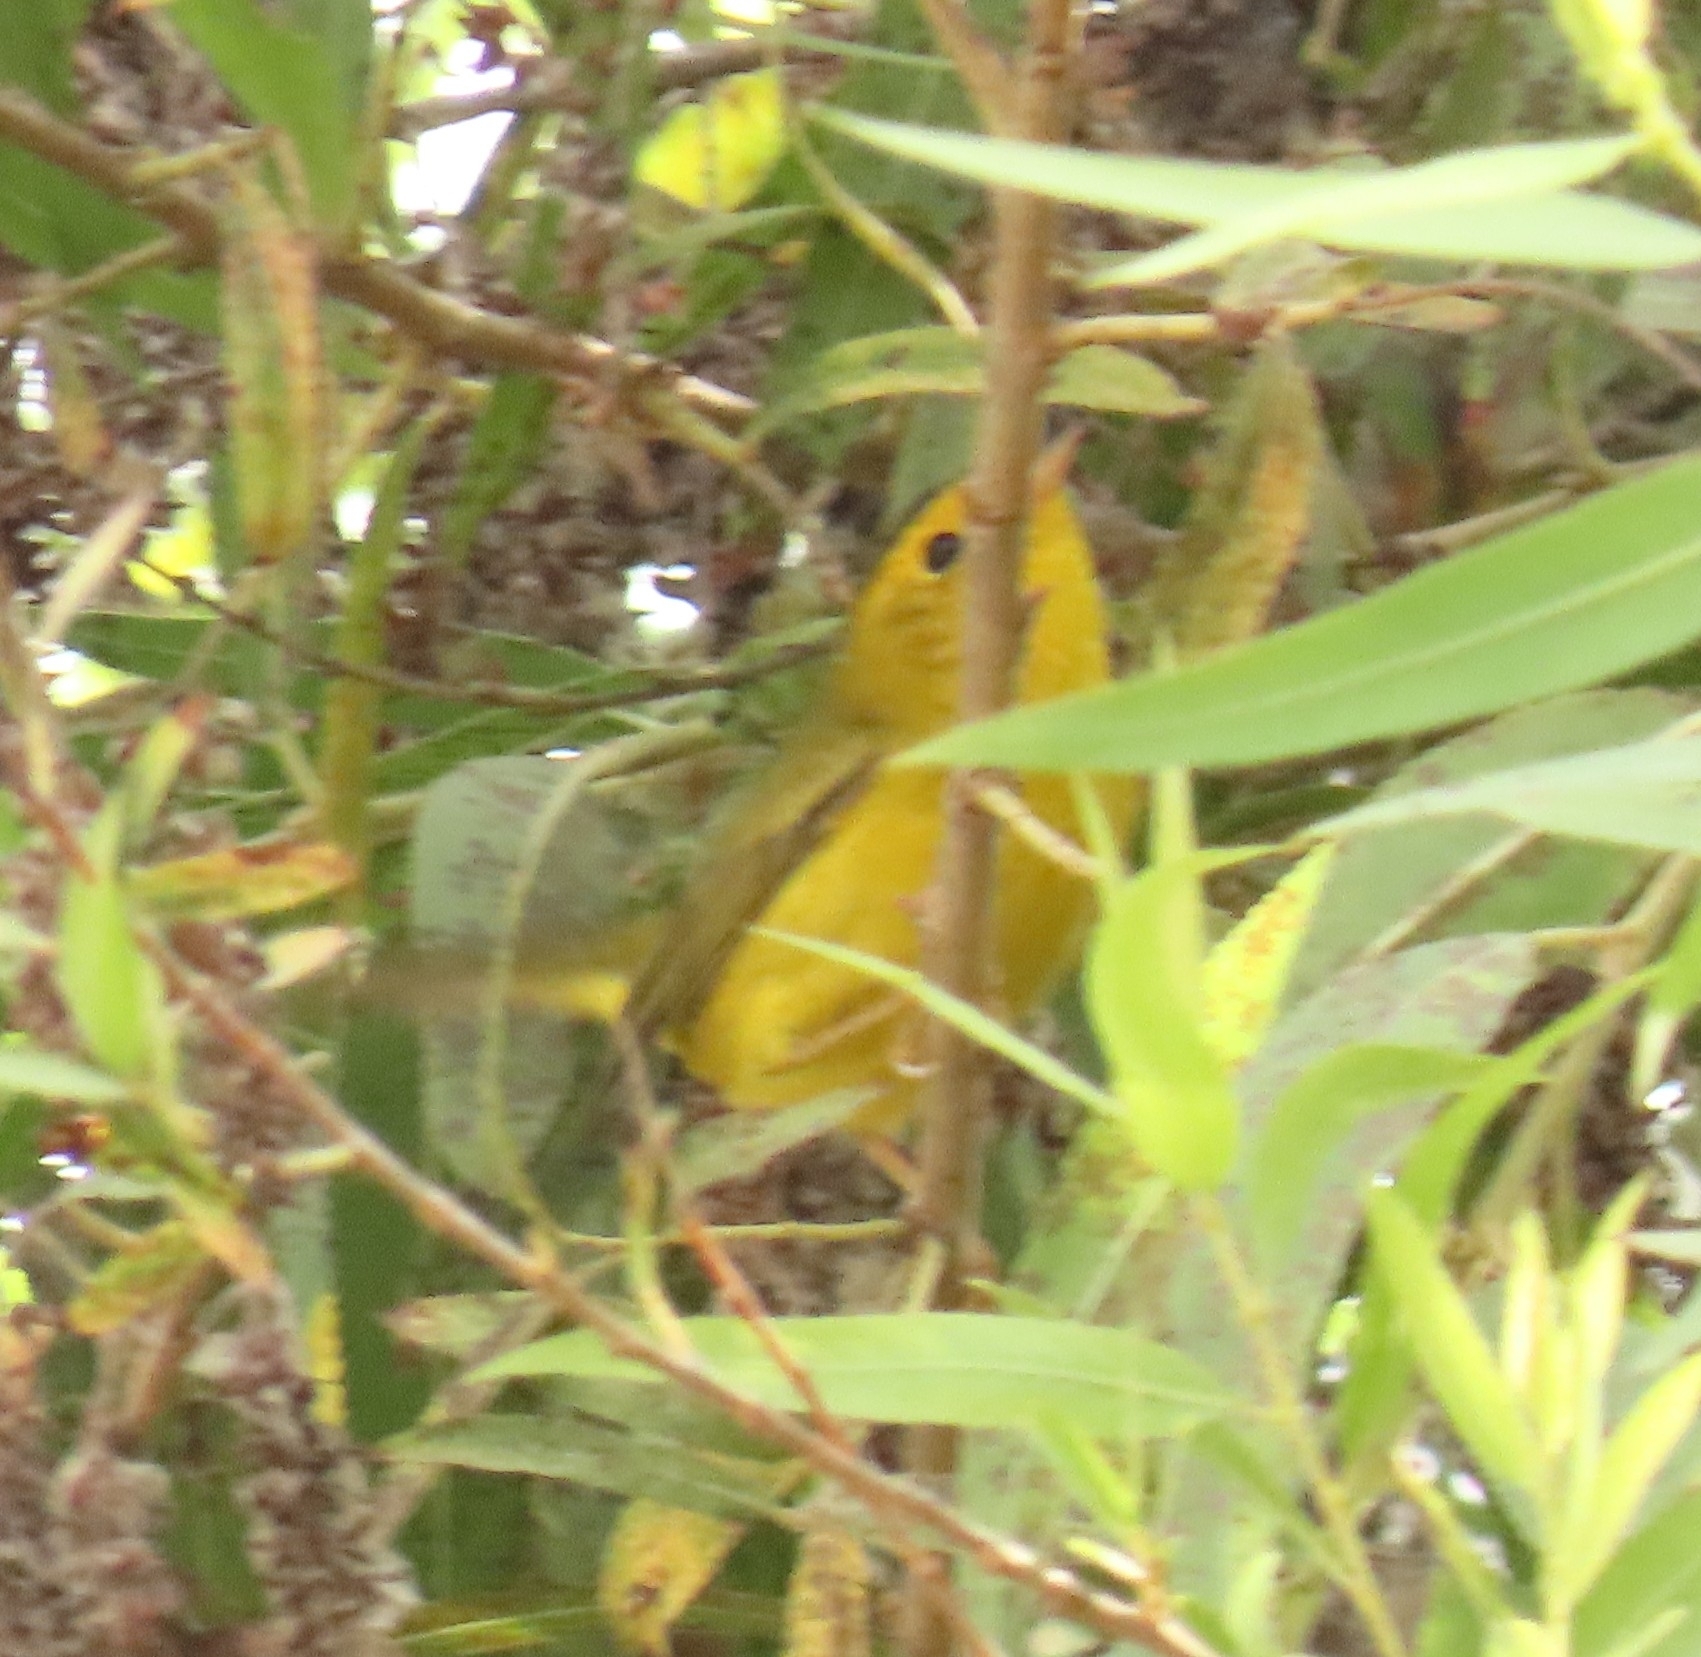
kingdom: Animalia
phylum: Chordata
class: Aves
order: Passeriformes
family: Parulidae
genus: Cardellina
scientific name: Cardellina pusilla
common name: Wilson's warbler
